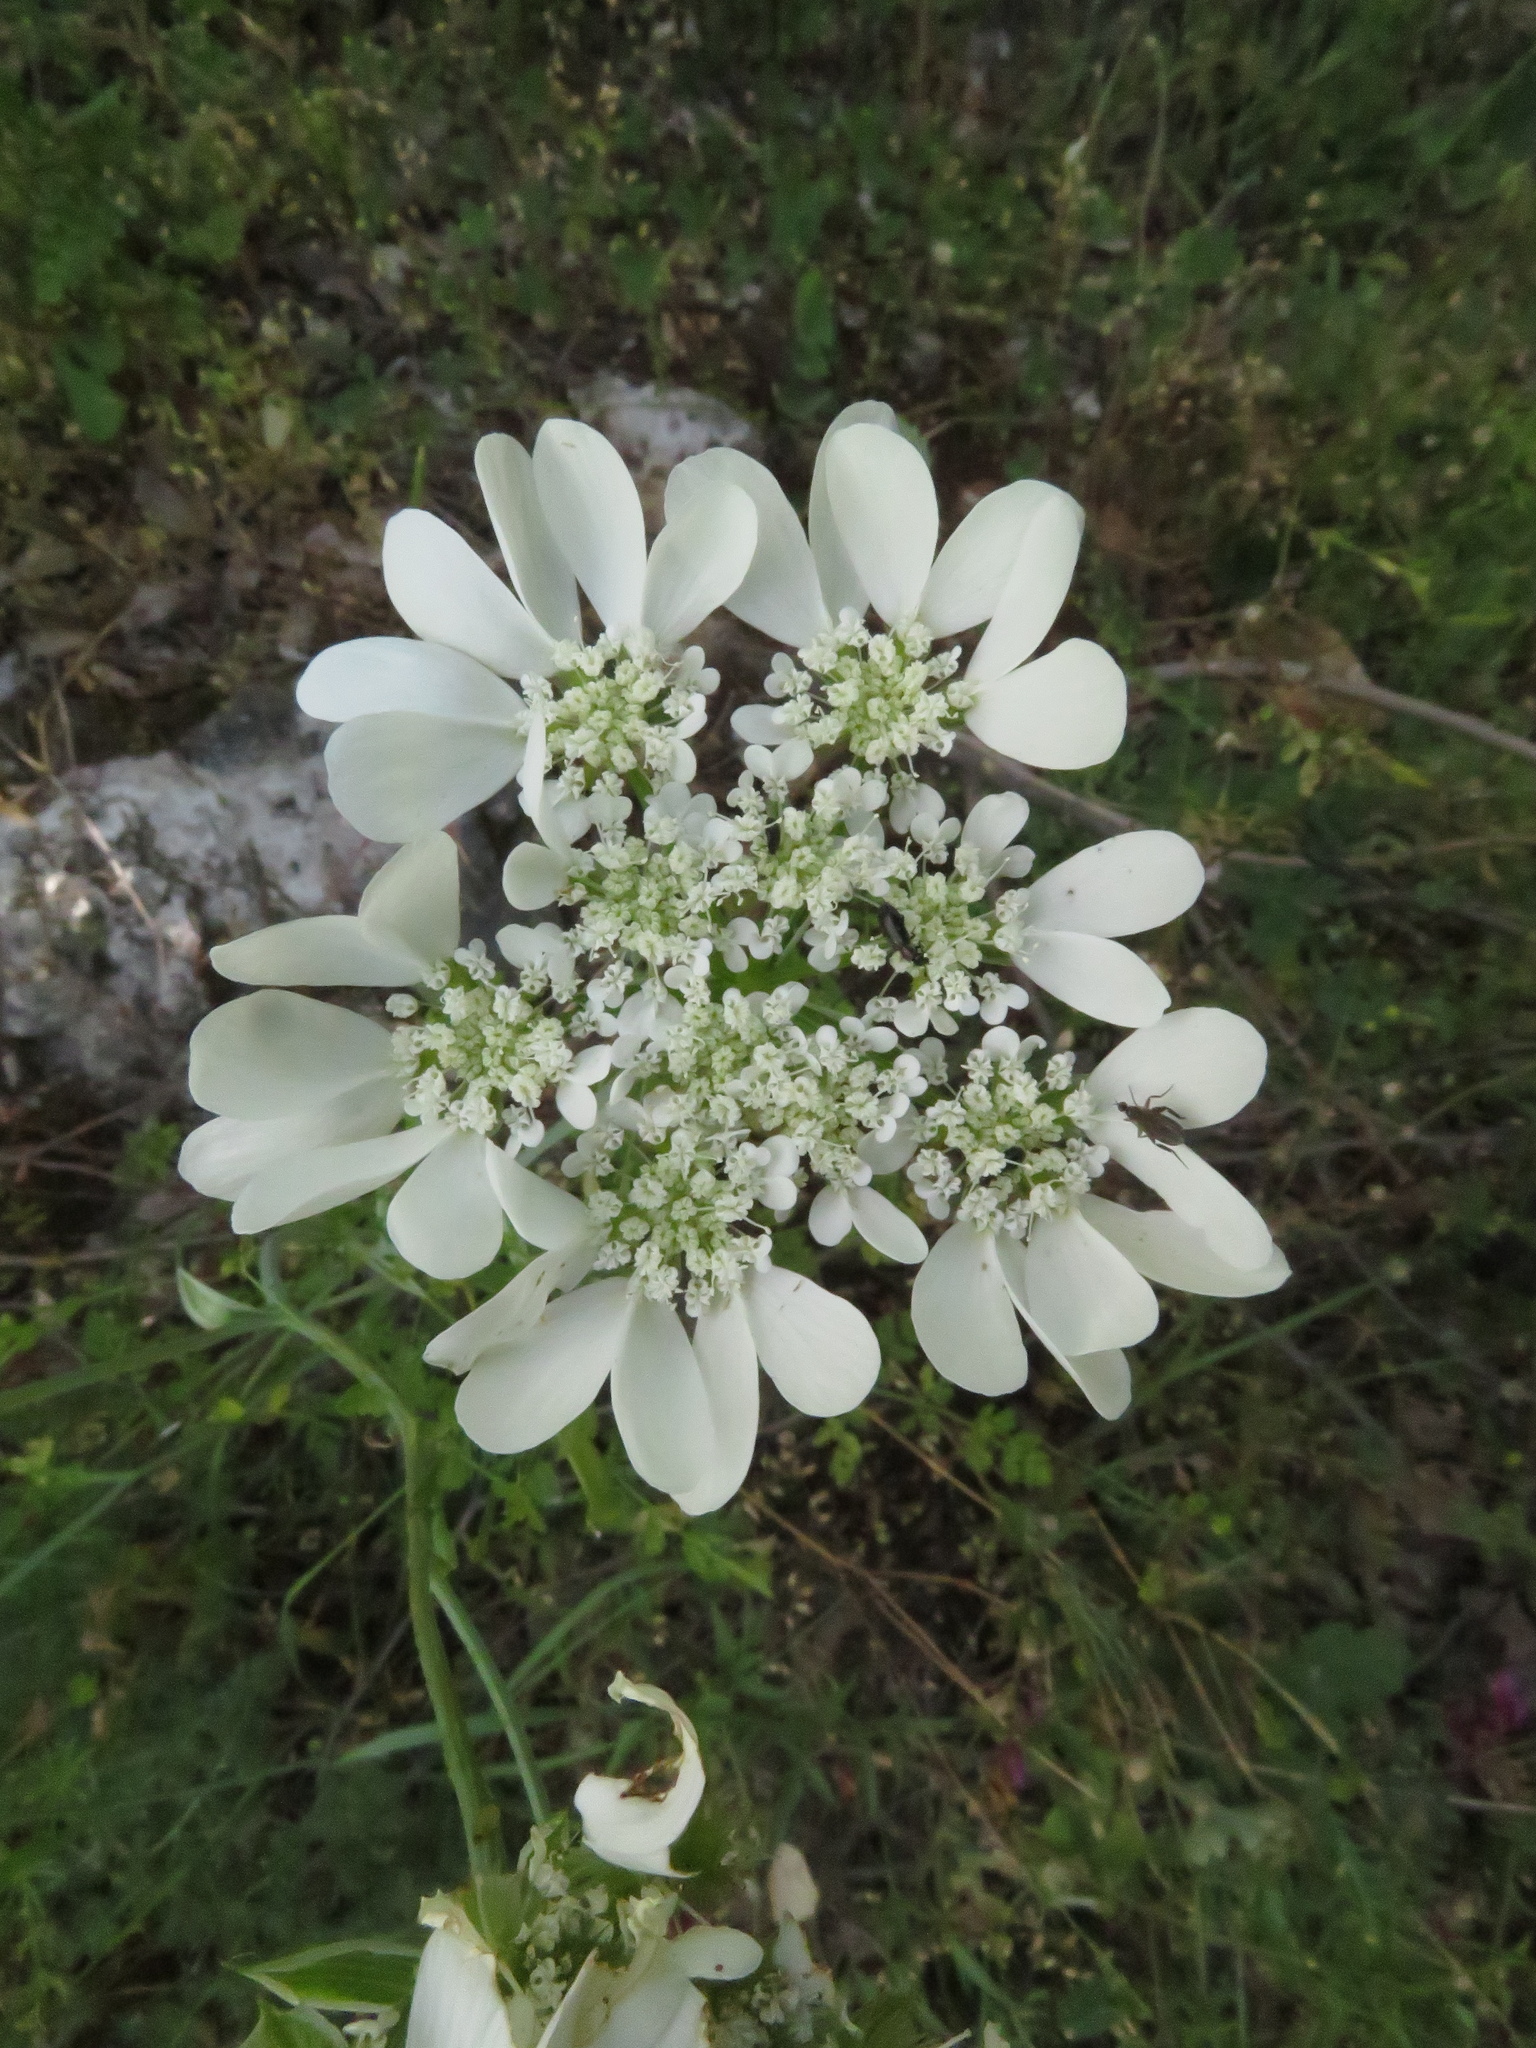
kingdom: Plantae
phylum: Tracheophyta
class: Magnoliopsida
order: Apiales
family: Apiaceae
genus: Orlaya
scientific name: Orlaya grandiflora
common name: White lace flower
